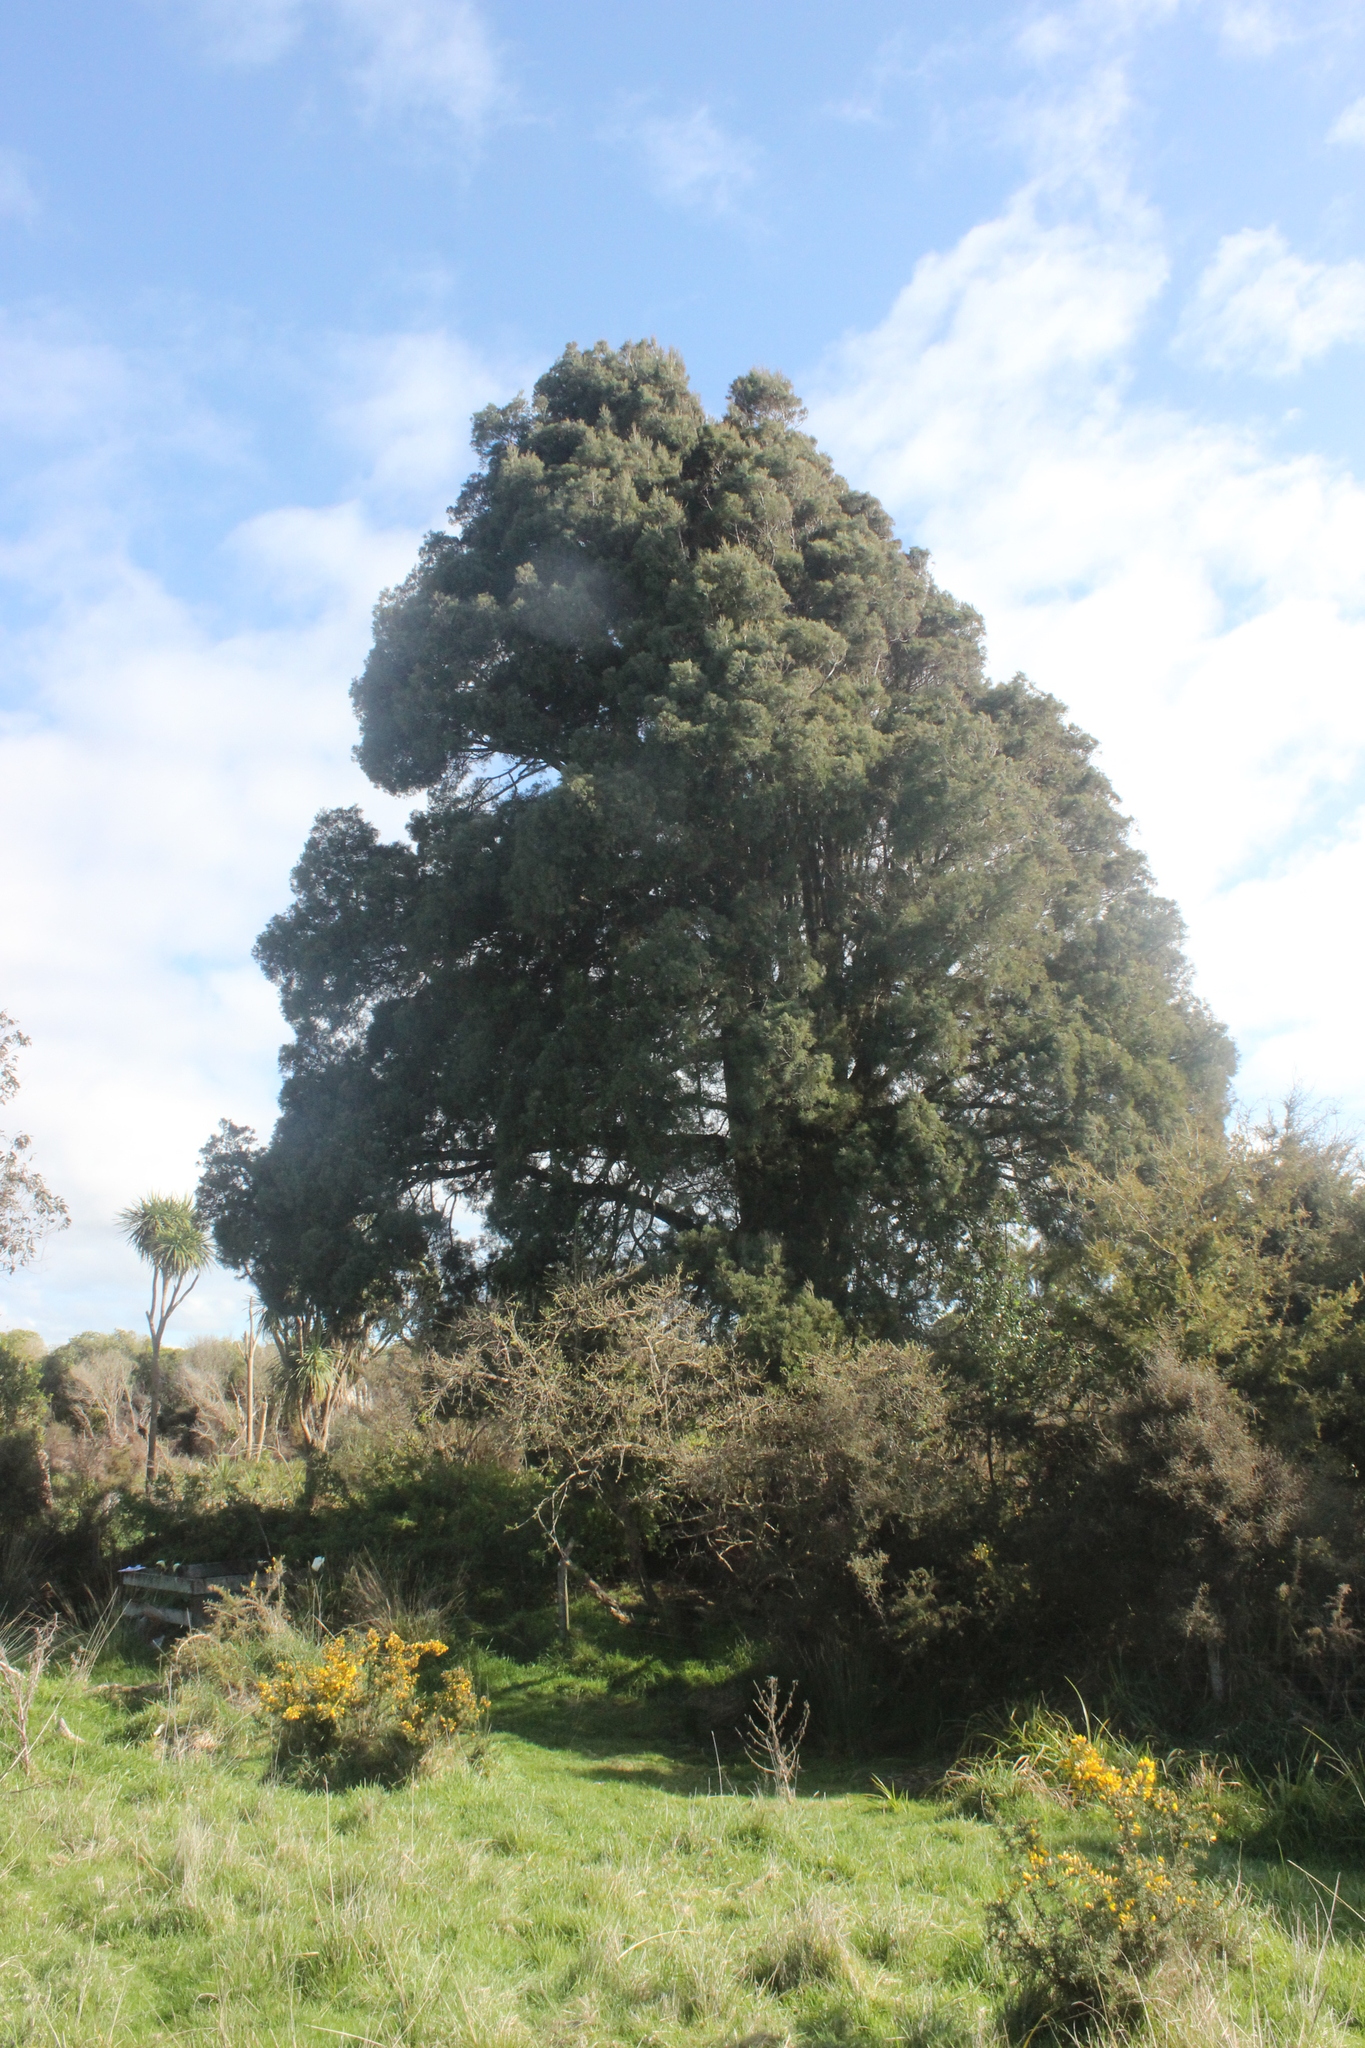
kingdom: Plantae
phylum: Tracheophyta
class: Pinopsida
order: Pinales
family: Podocarpaceae
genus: Dacrycarpus
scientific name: Dacrycarpus dacrydioides
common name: White pine
